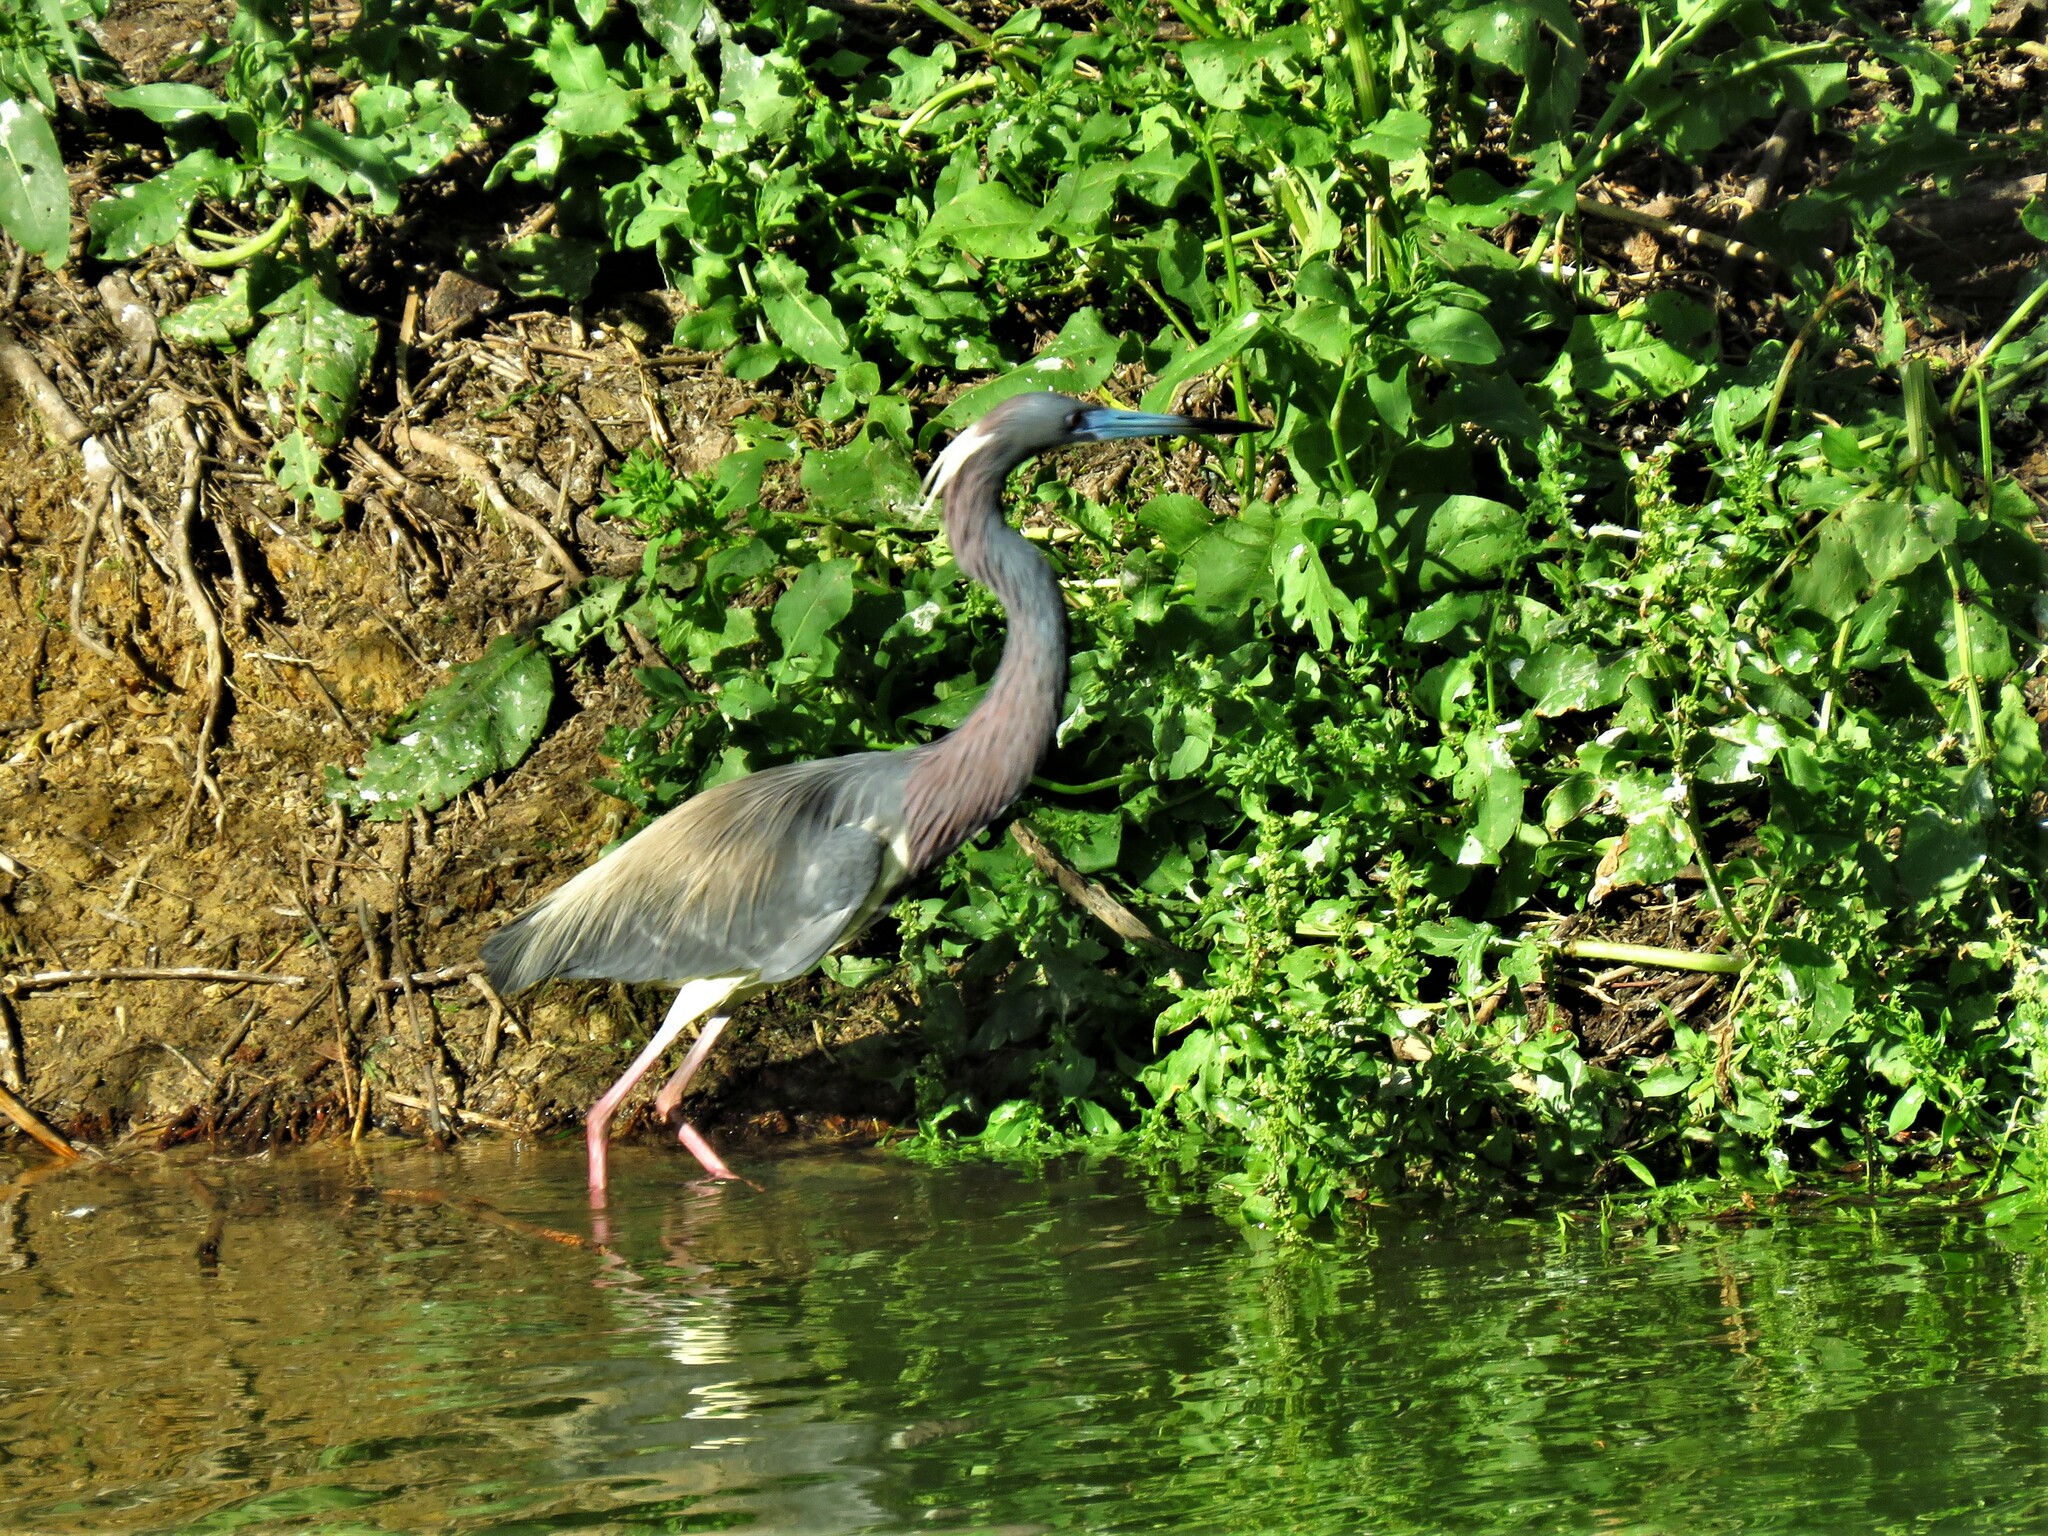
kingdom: Animalia
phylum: Chordata
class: Aves
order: Pelecaniformes
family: Ardeidae
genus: Egretta
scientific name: Egretta tricolor
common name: Tricolored heron
